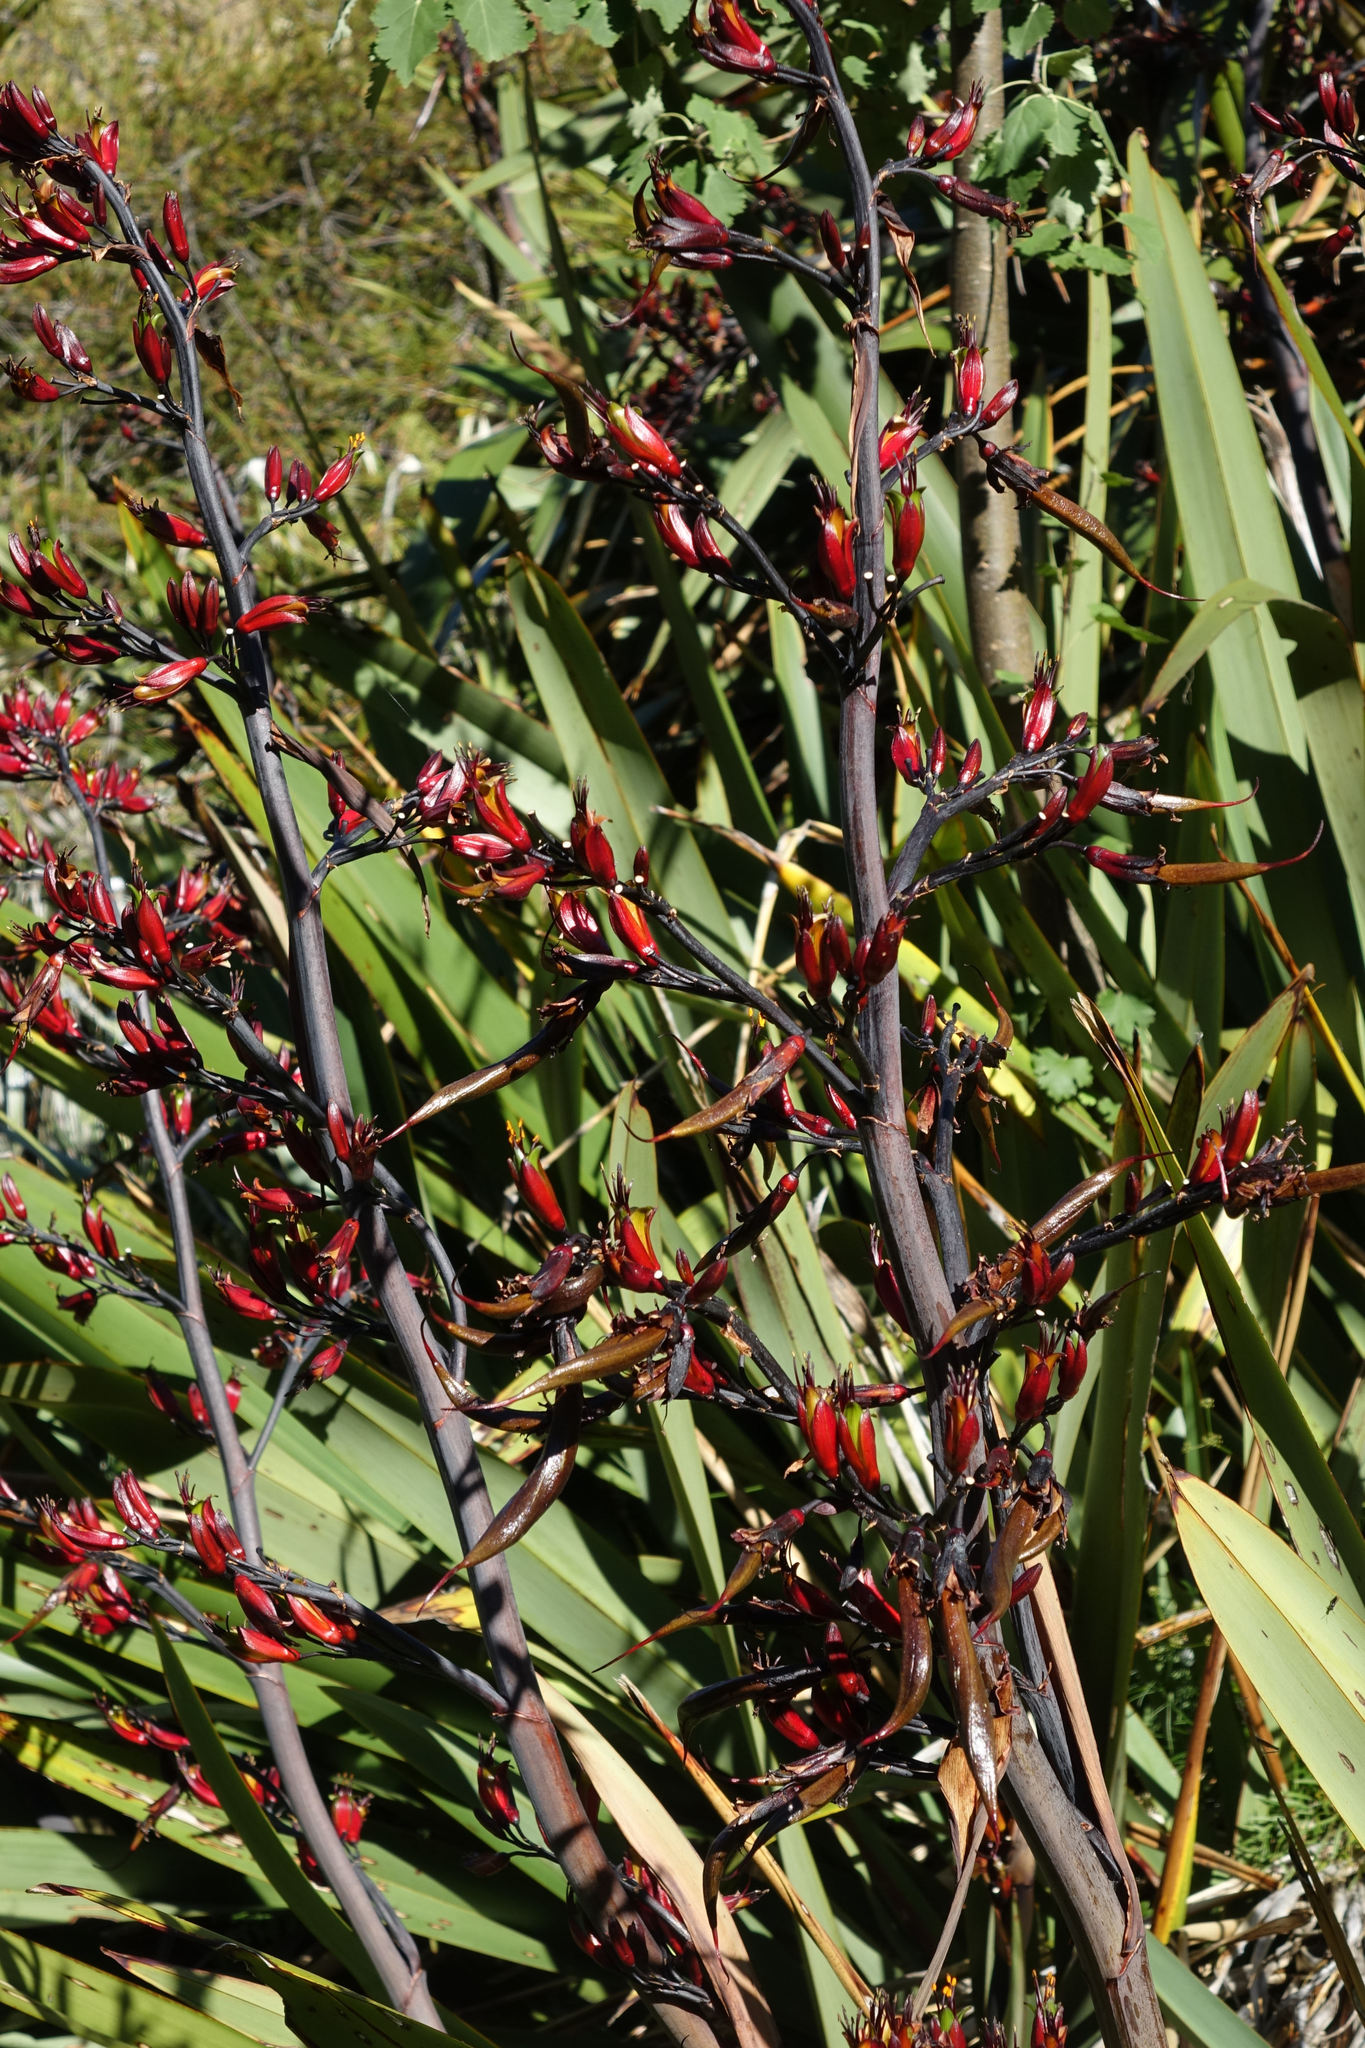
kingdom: Plantae
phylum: Tracheophyta
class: Liliopsida
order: Asparagales
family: Asphodelaceae
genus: Phormium
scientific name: Phormium colensoi
